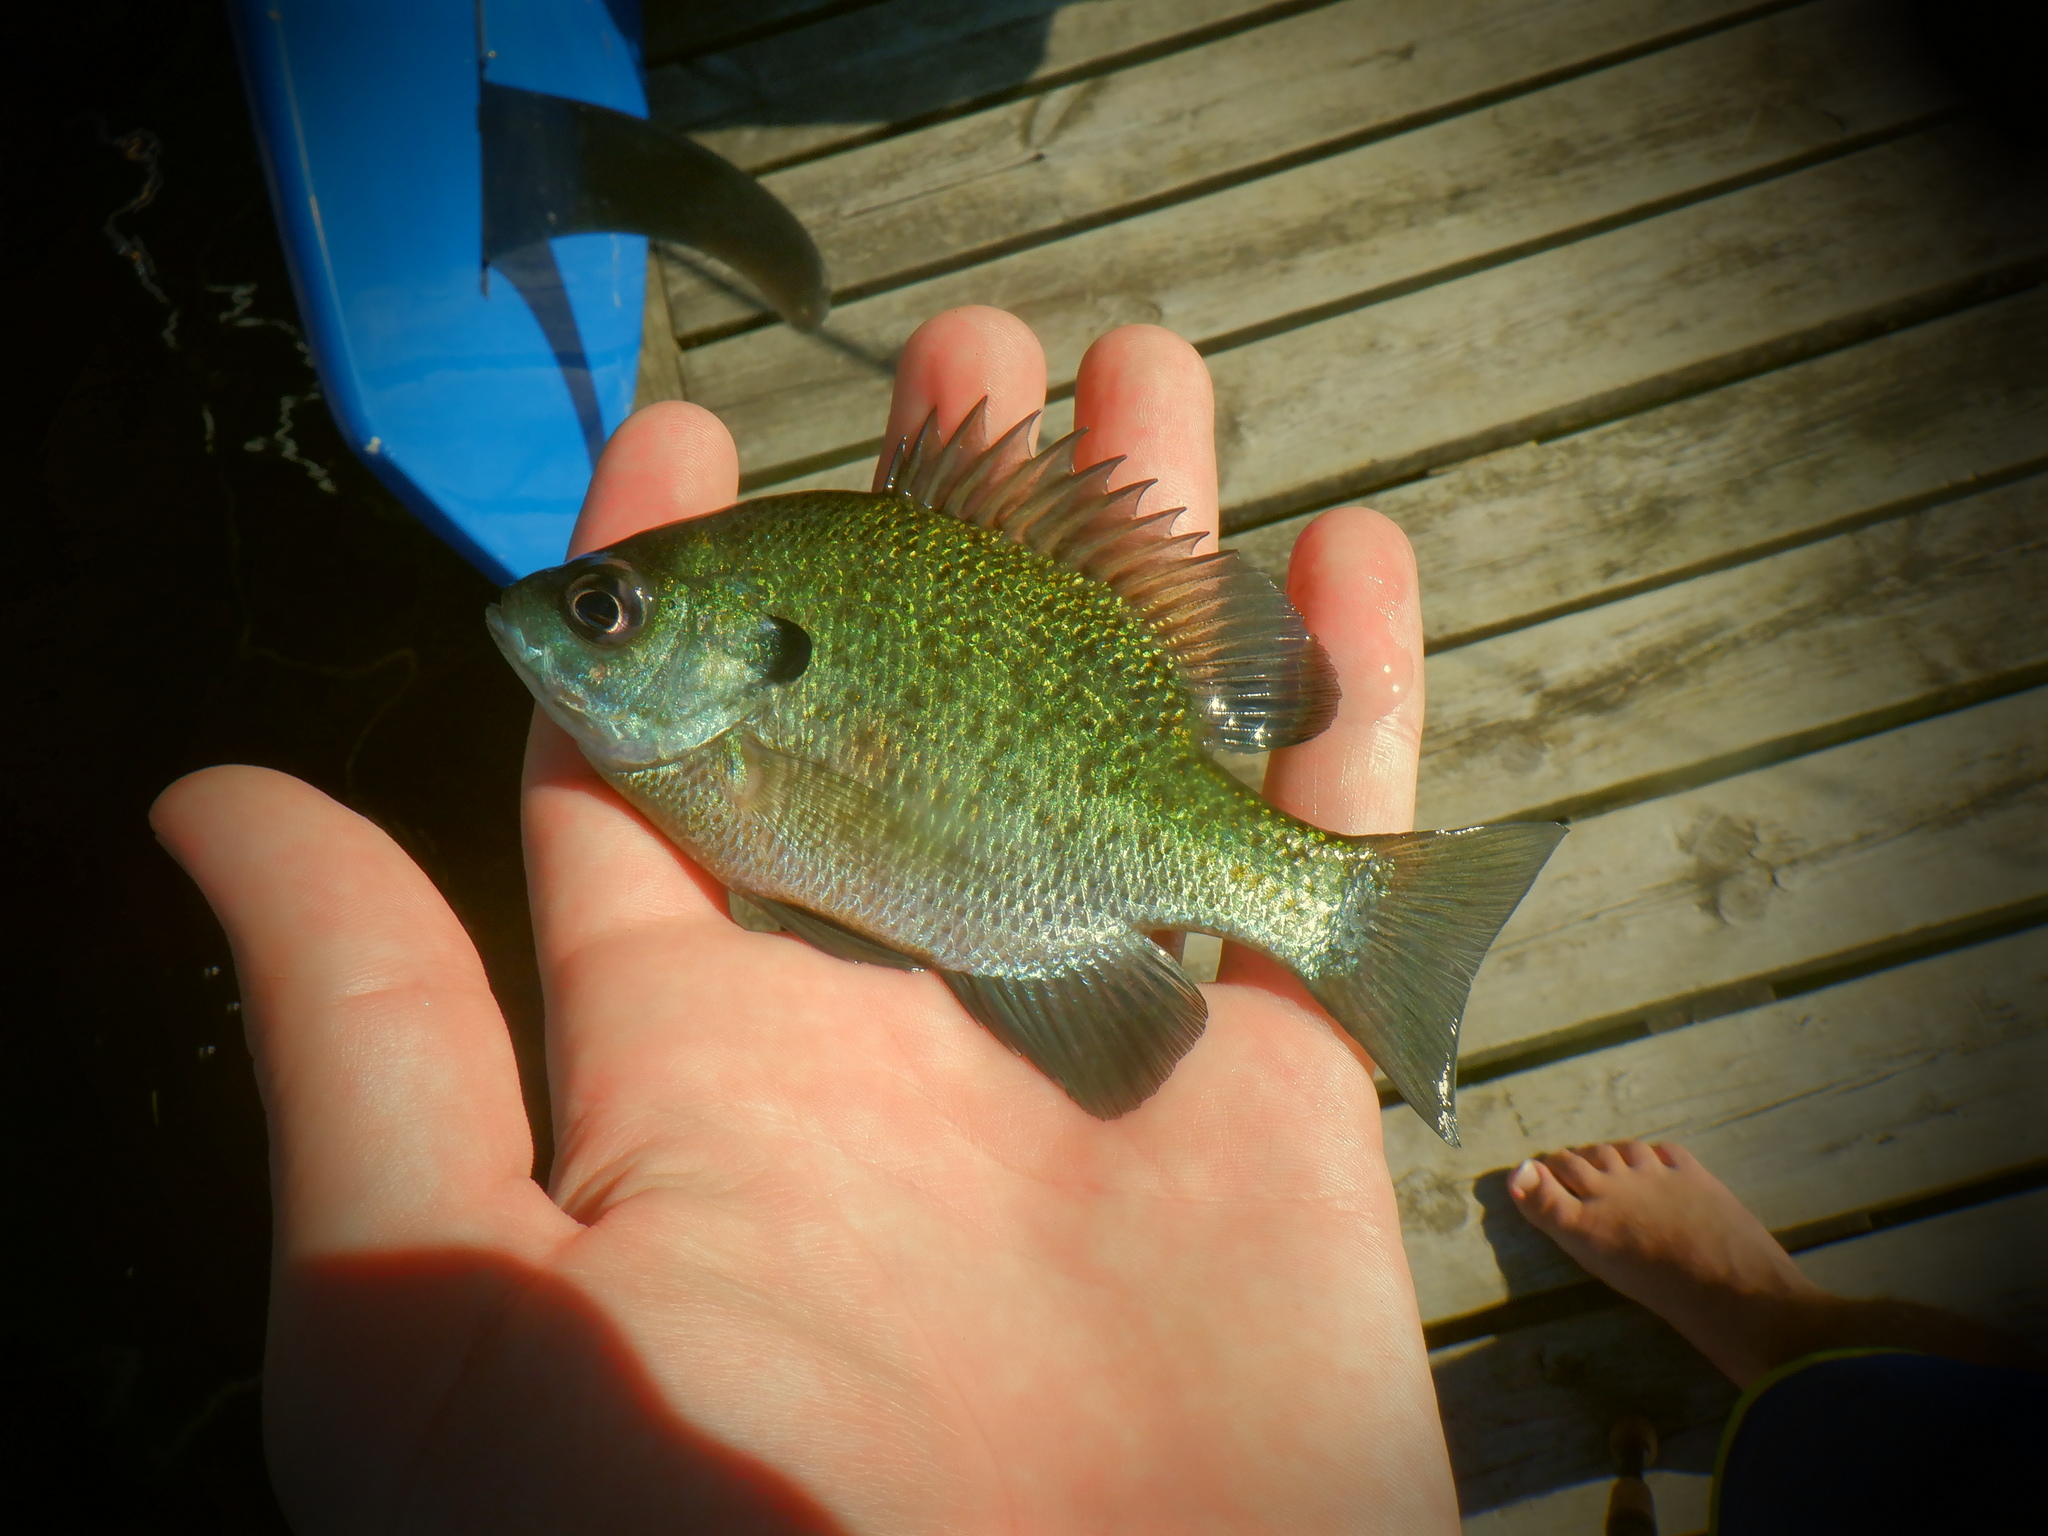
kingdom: Animalia
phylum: Chordata
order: Perciformes
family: Centrarchidae
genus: Lepomis
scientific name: Lepomis macrochirus
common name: Bluegill
